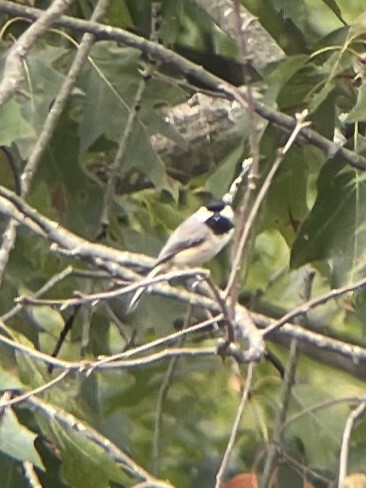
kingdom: Animalia
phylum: Chordata
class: Aves
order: Passeriformes
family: Paridae
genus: Poecile
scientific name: Poecile carolinensis
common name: Carolina chickadee
